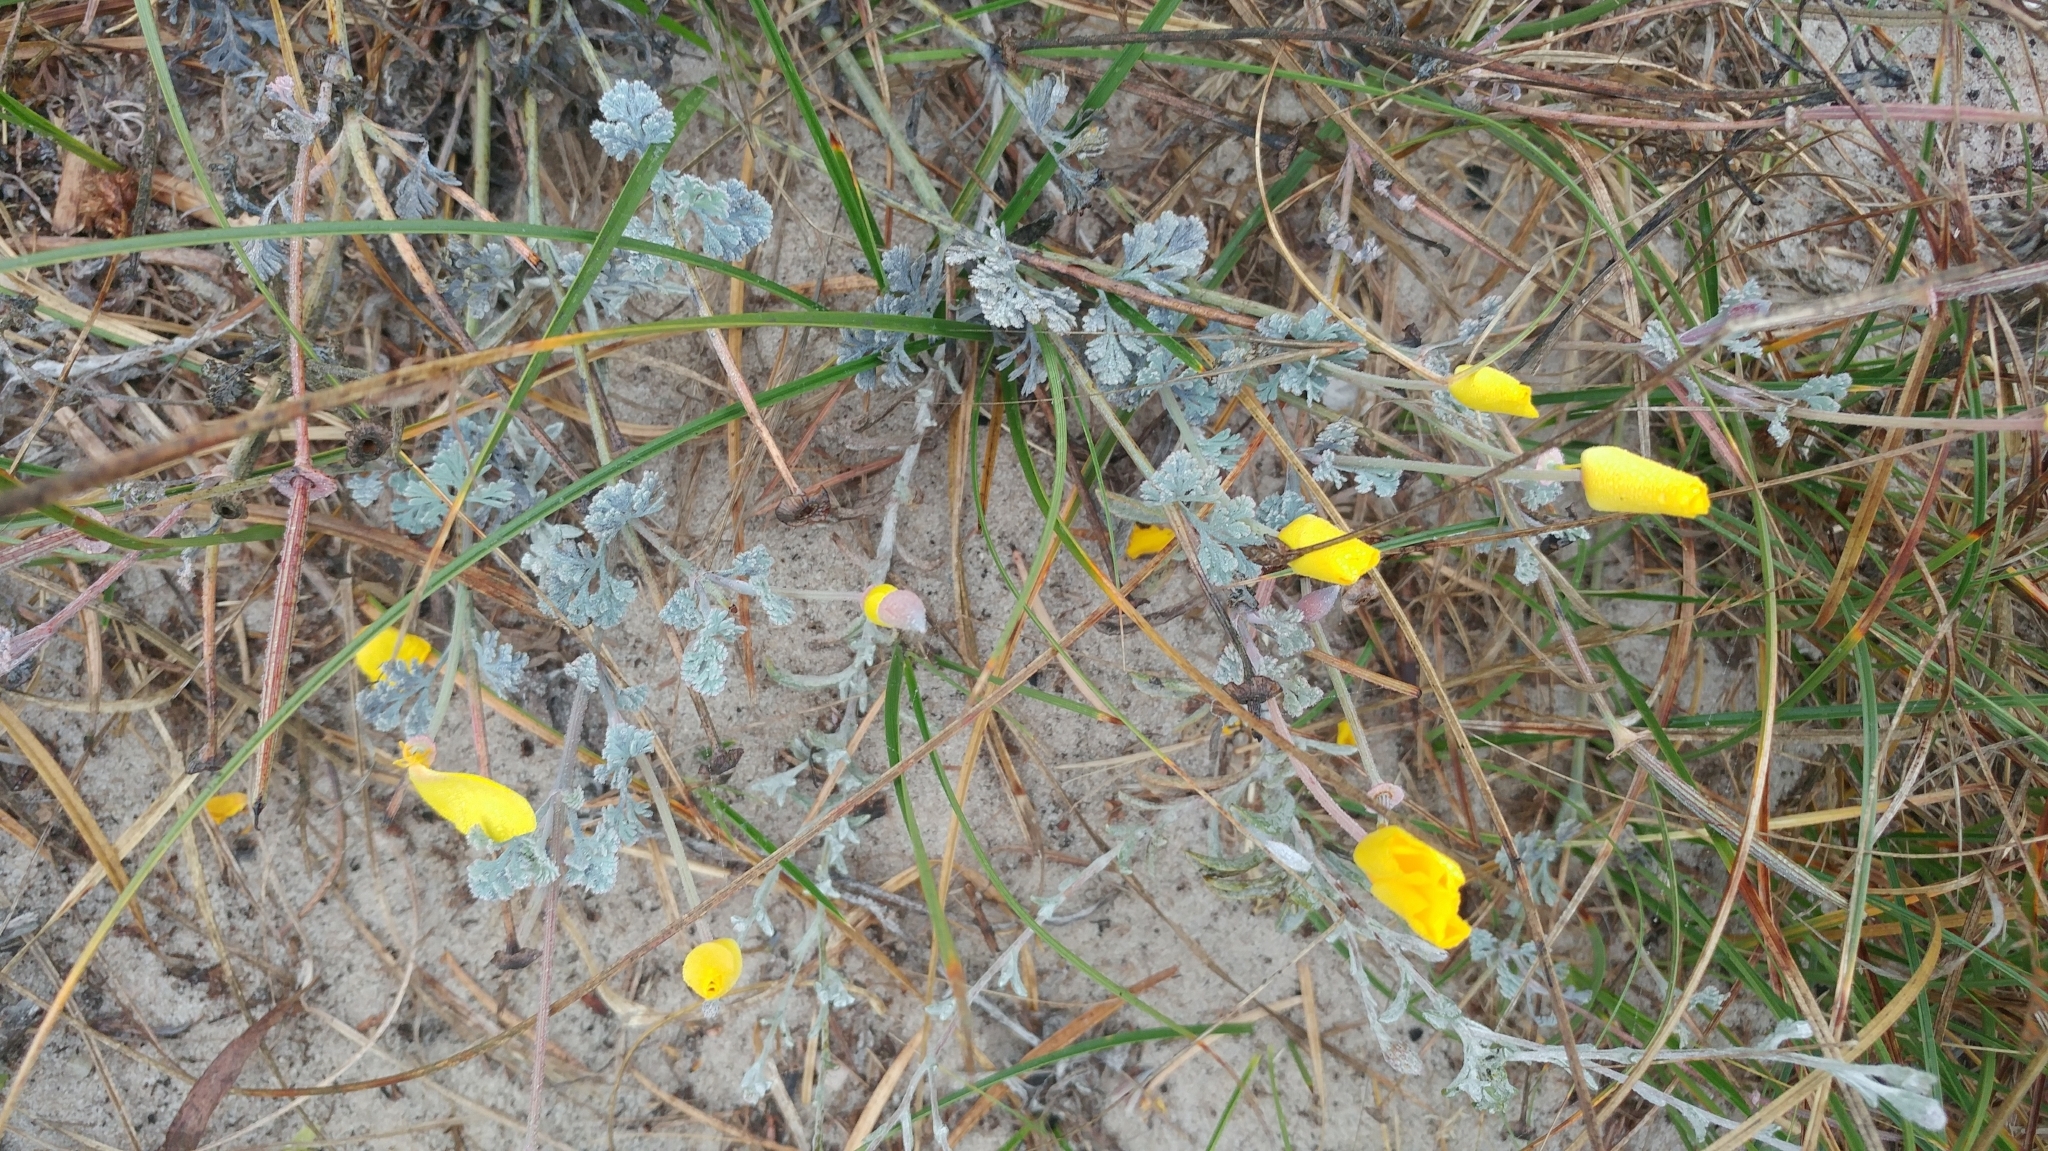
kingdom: Plantae
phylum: Tracheophyta
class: Magnoliopsida
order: Ranunculales
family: Papaveraceae
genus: Eschscholzia
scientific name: Eschscholzia californica
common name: California poppy
